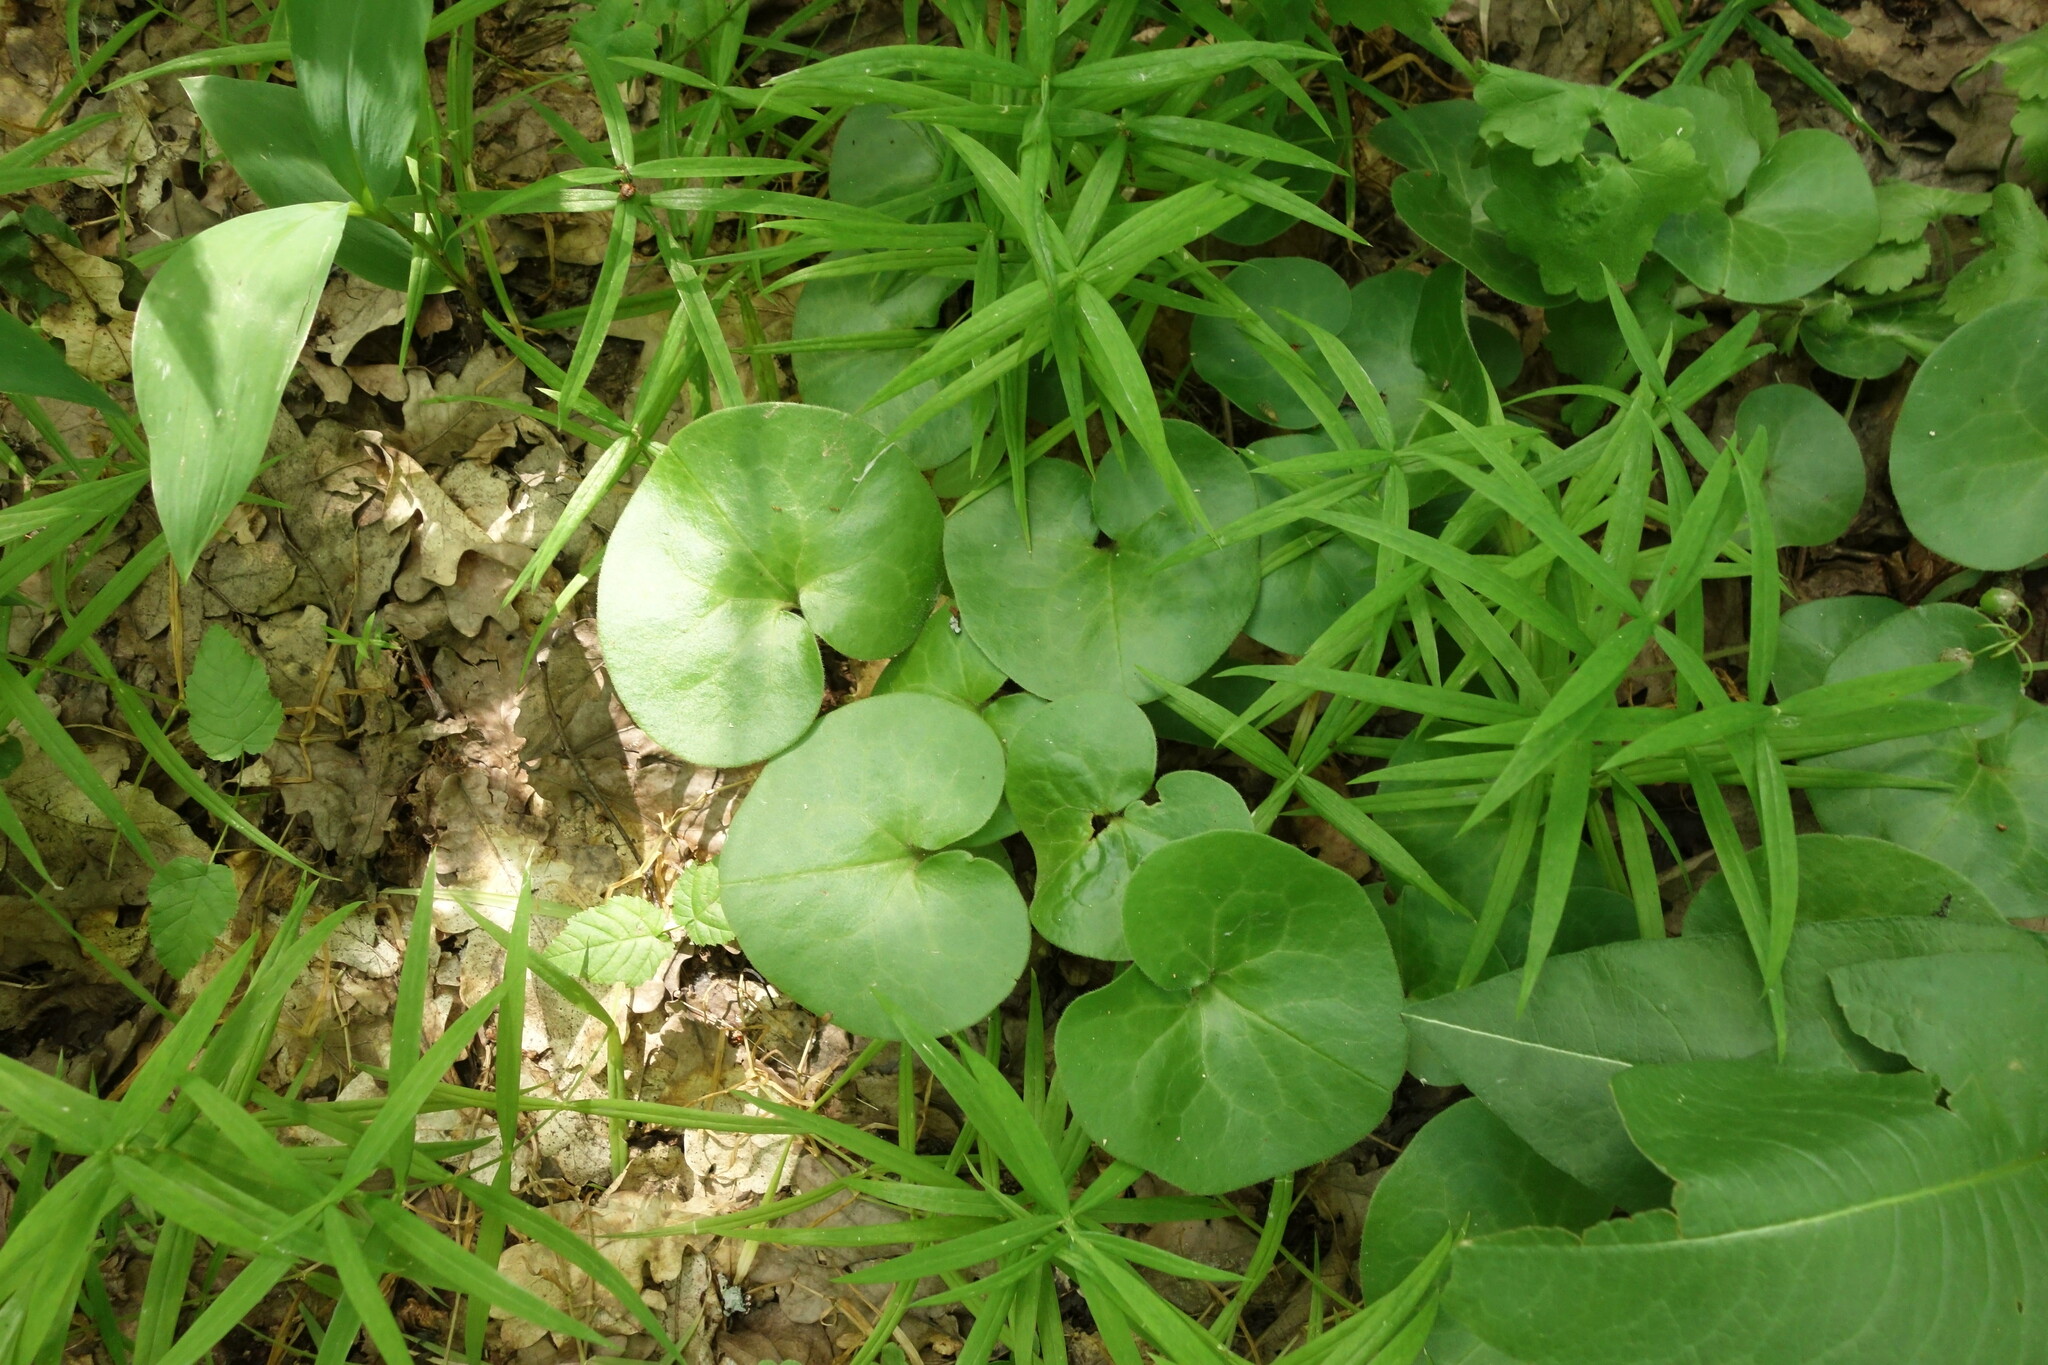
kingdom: Plantae
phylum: Tracheophyta
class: Magnoliopsida
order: Piperales
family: Aristolochiaceae
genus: Asarum
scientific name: Asarum europaeum
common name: Asarabacca
